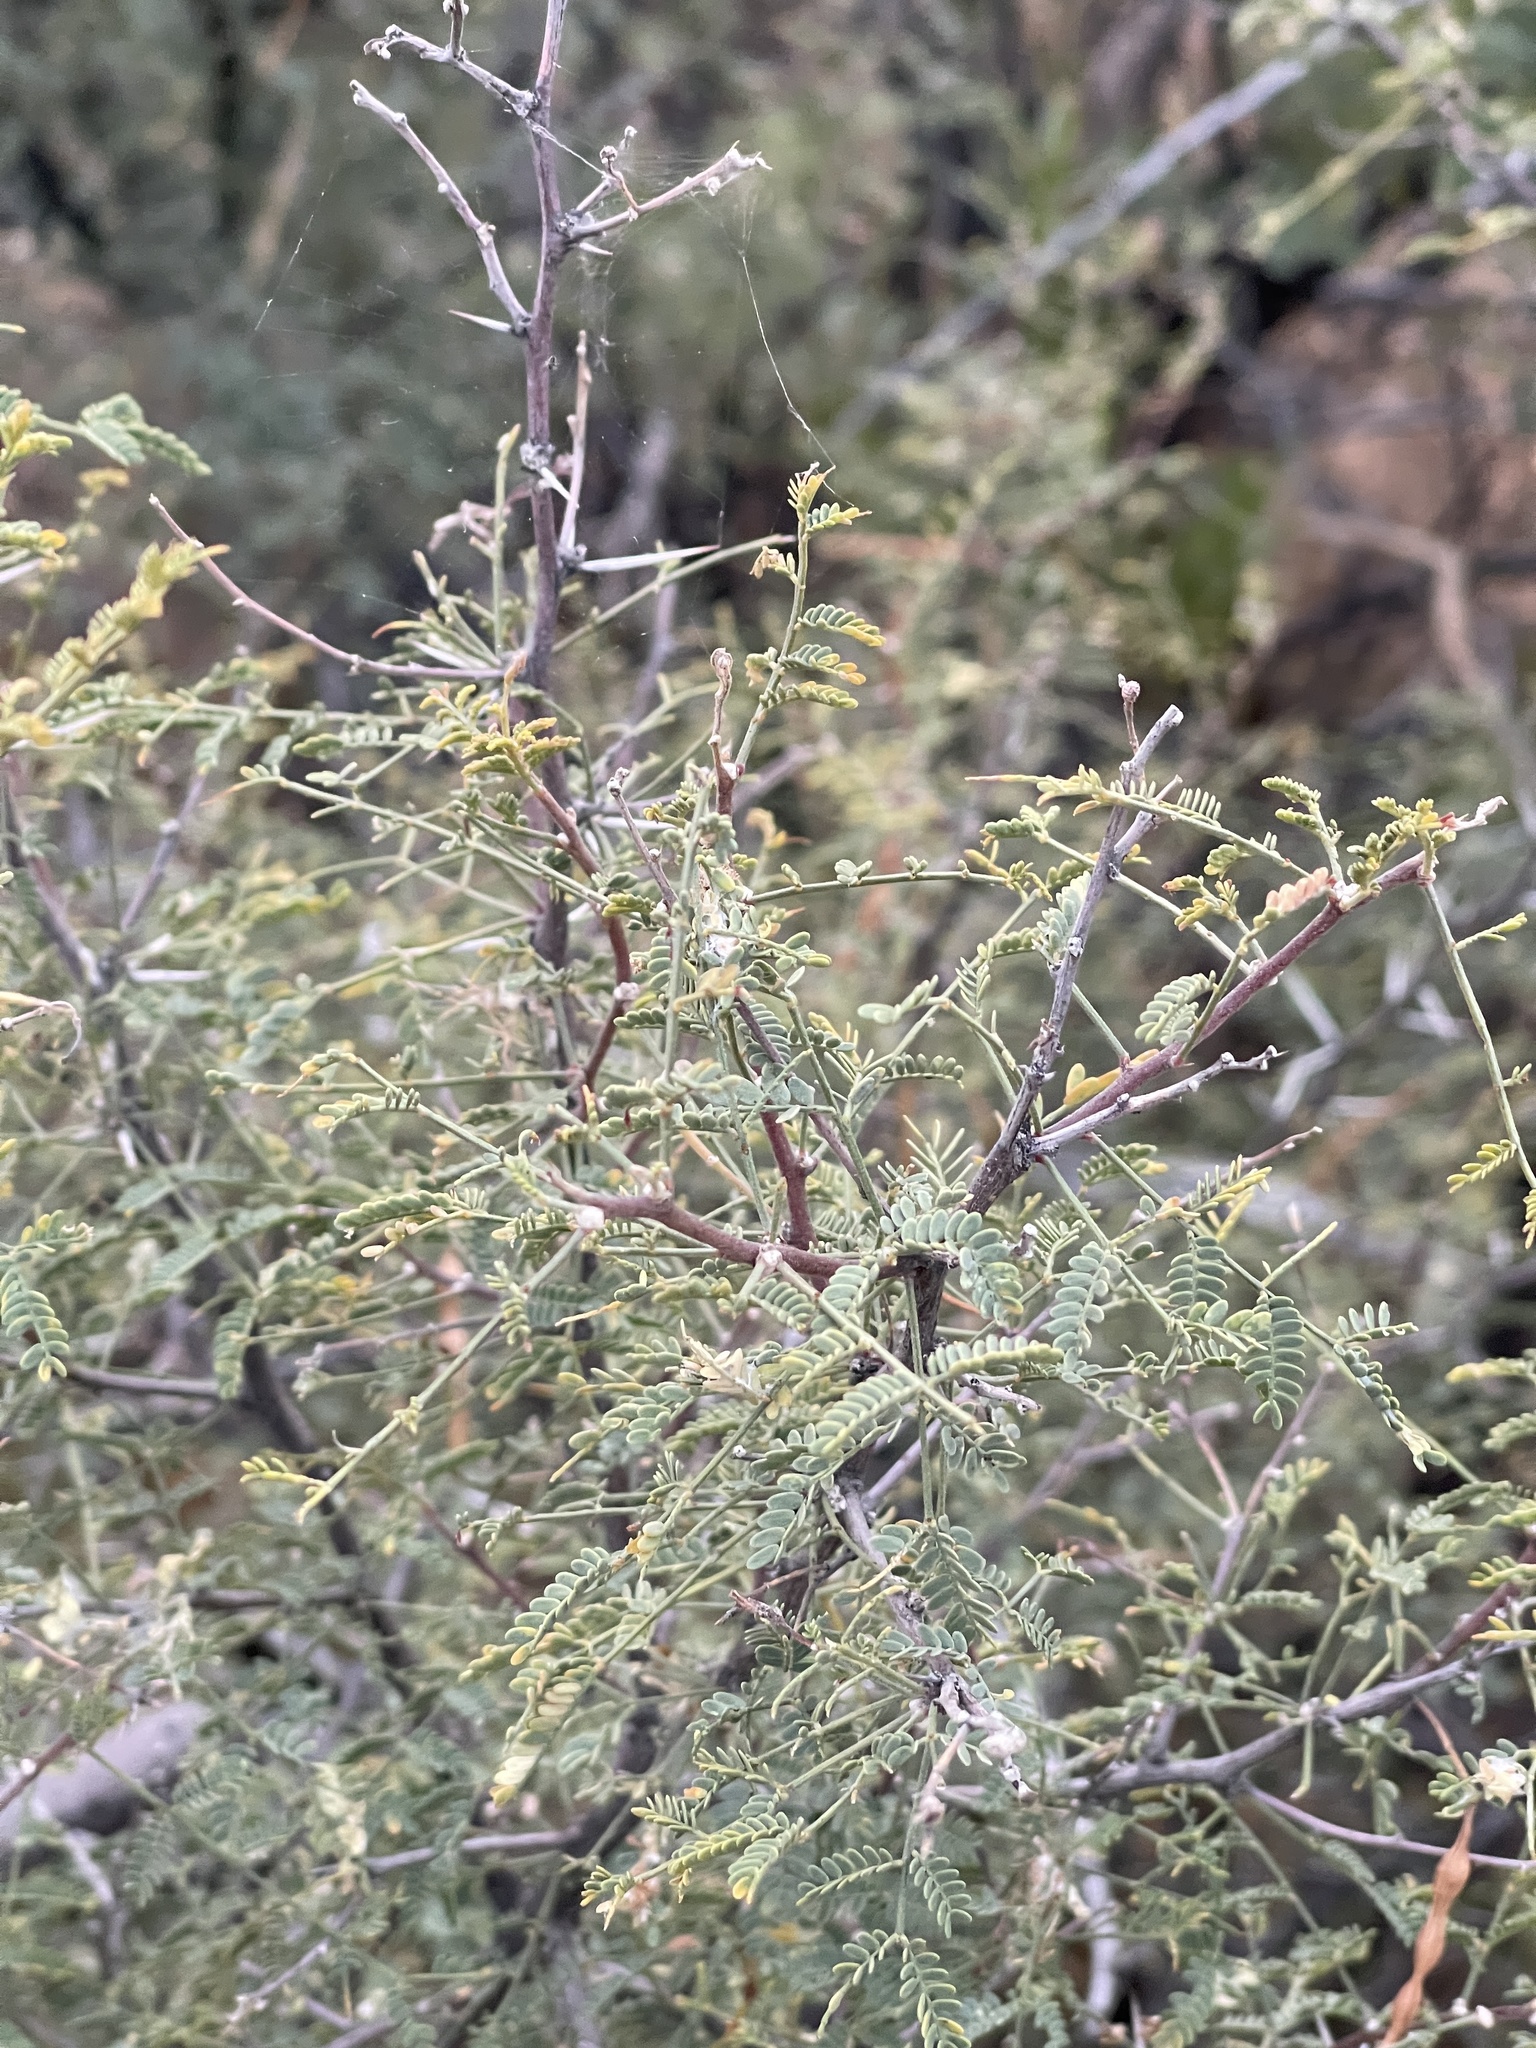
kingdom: Plantae
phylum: Tracheophyta
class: Magnoliopsida
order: Fabales
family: Fabaceae
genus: Vachellia
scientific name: Vachellia constricta
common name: Mescat acacia
